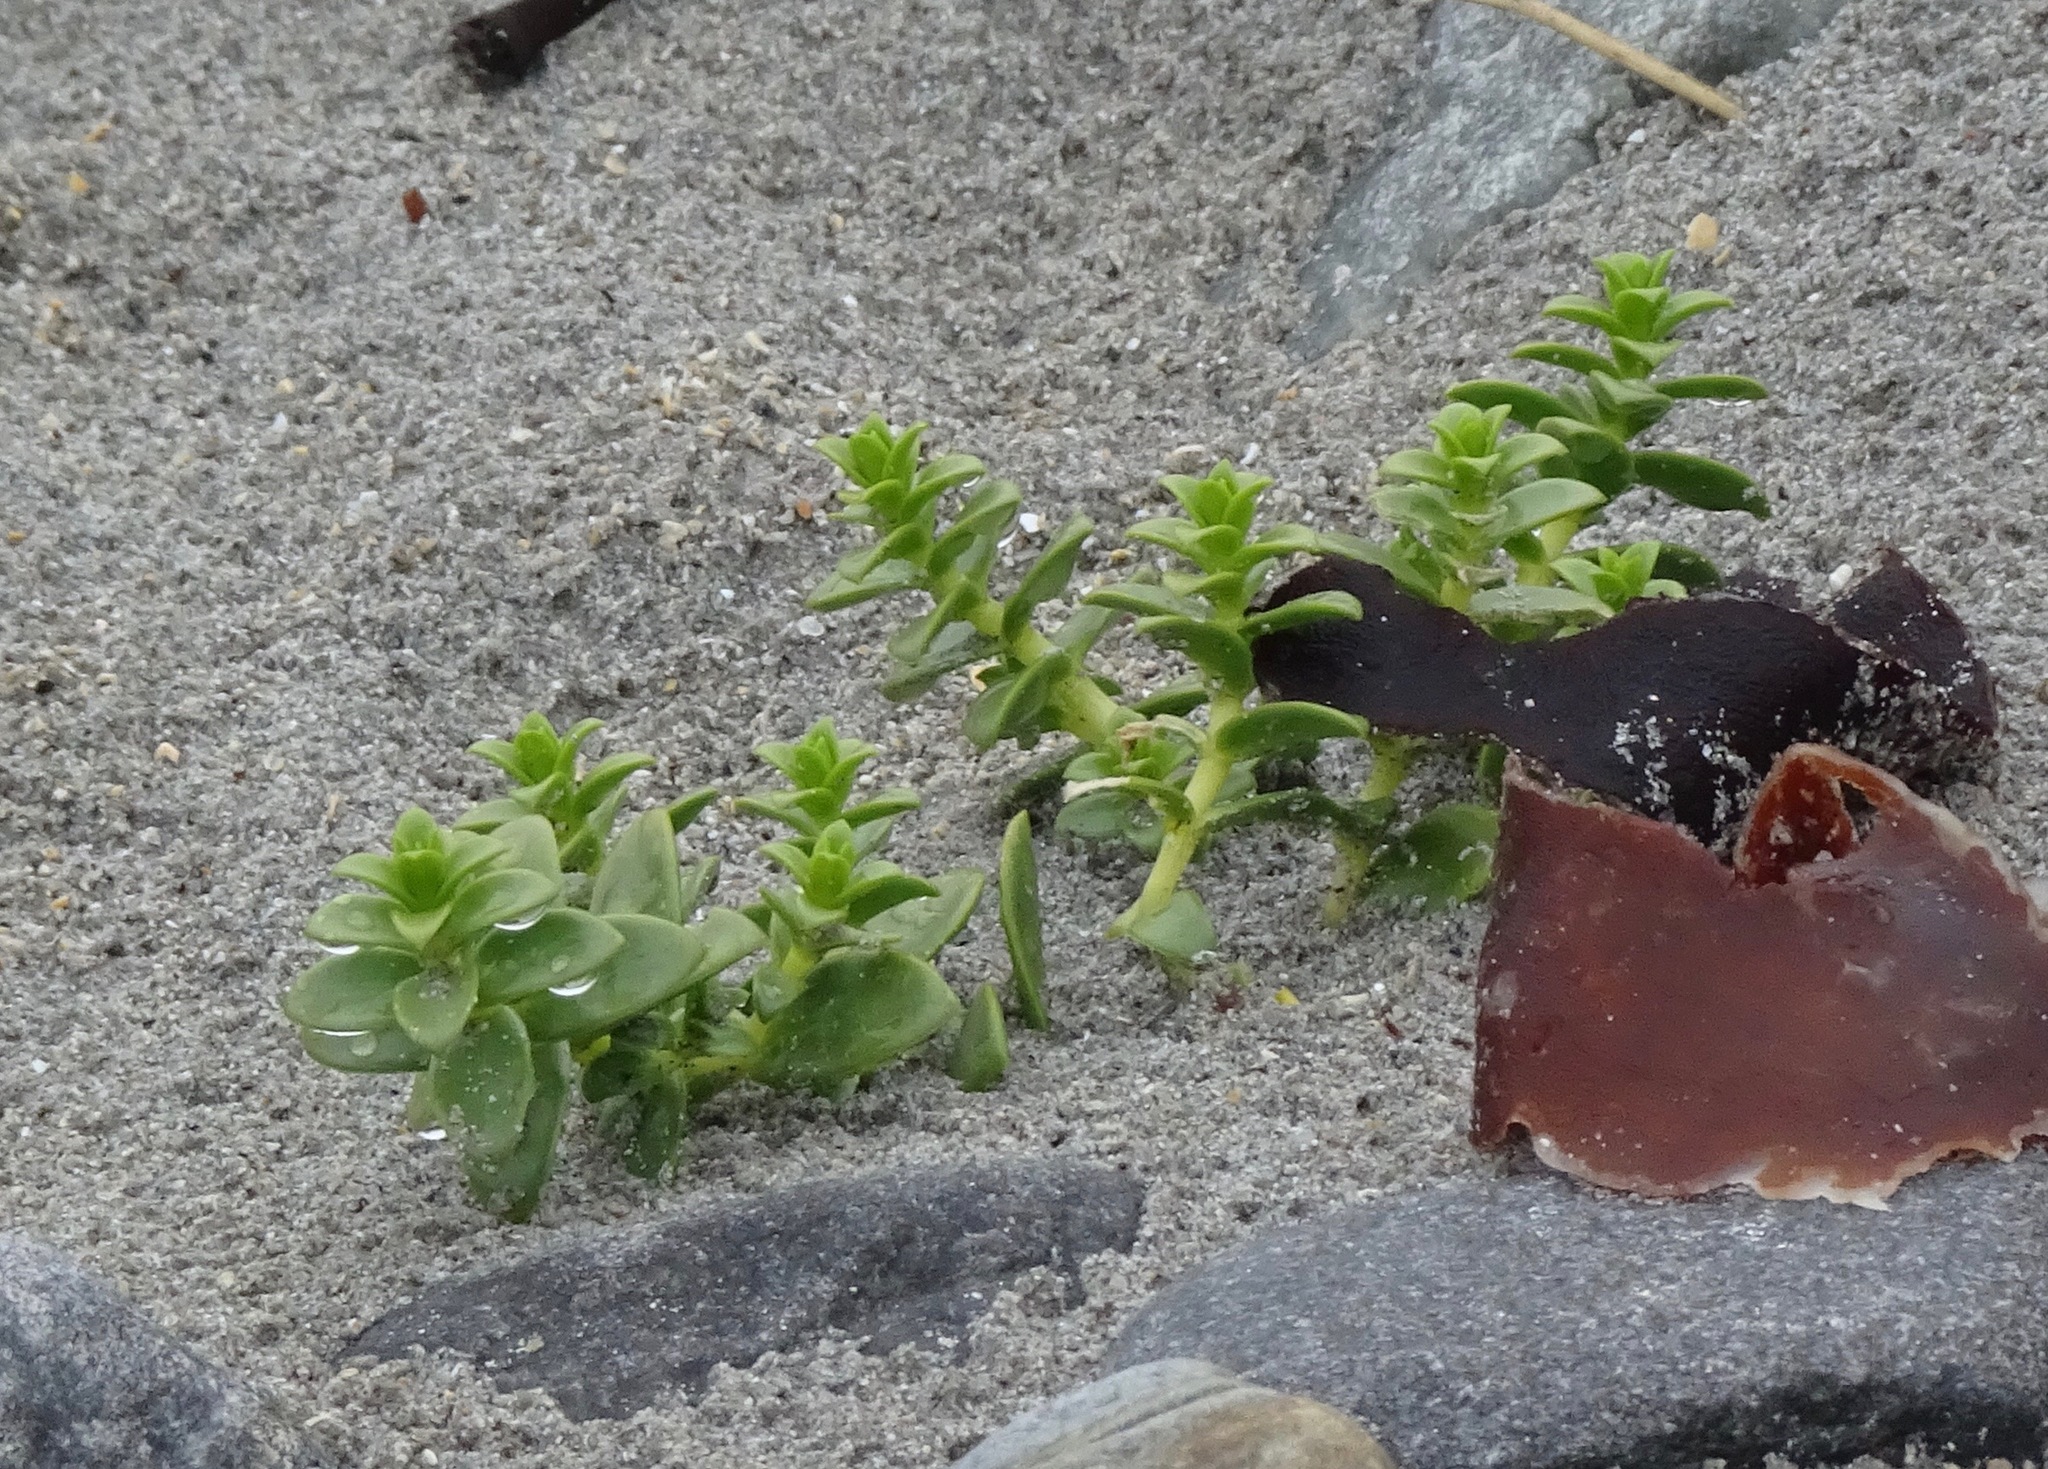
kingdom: Plantae
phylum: Tracheophyta
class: Magnoliopsida
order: Caryophyllales
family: Caryophyllaceae
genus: Honckenya
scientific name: Honckenya peploides
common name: Sea sandwort
